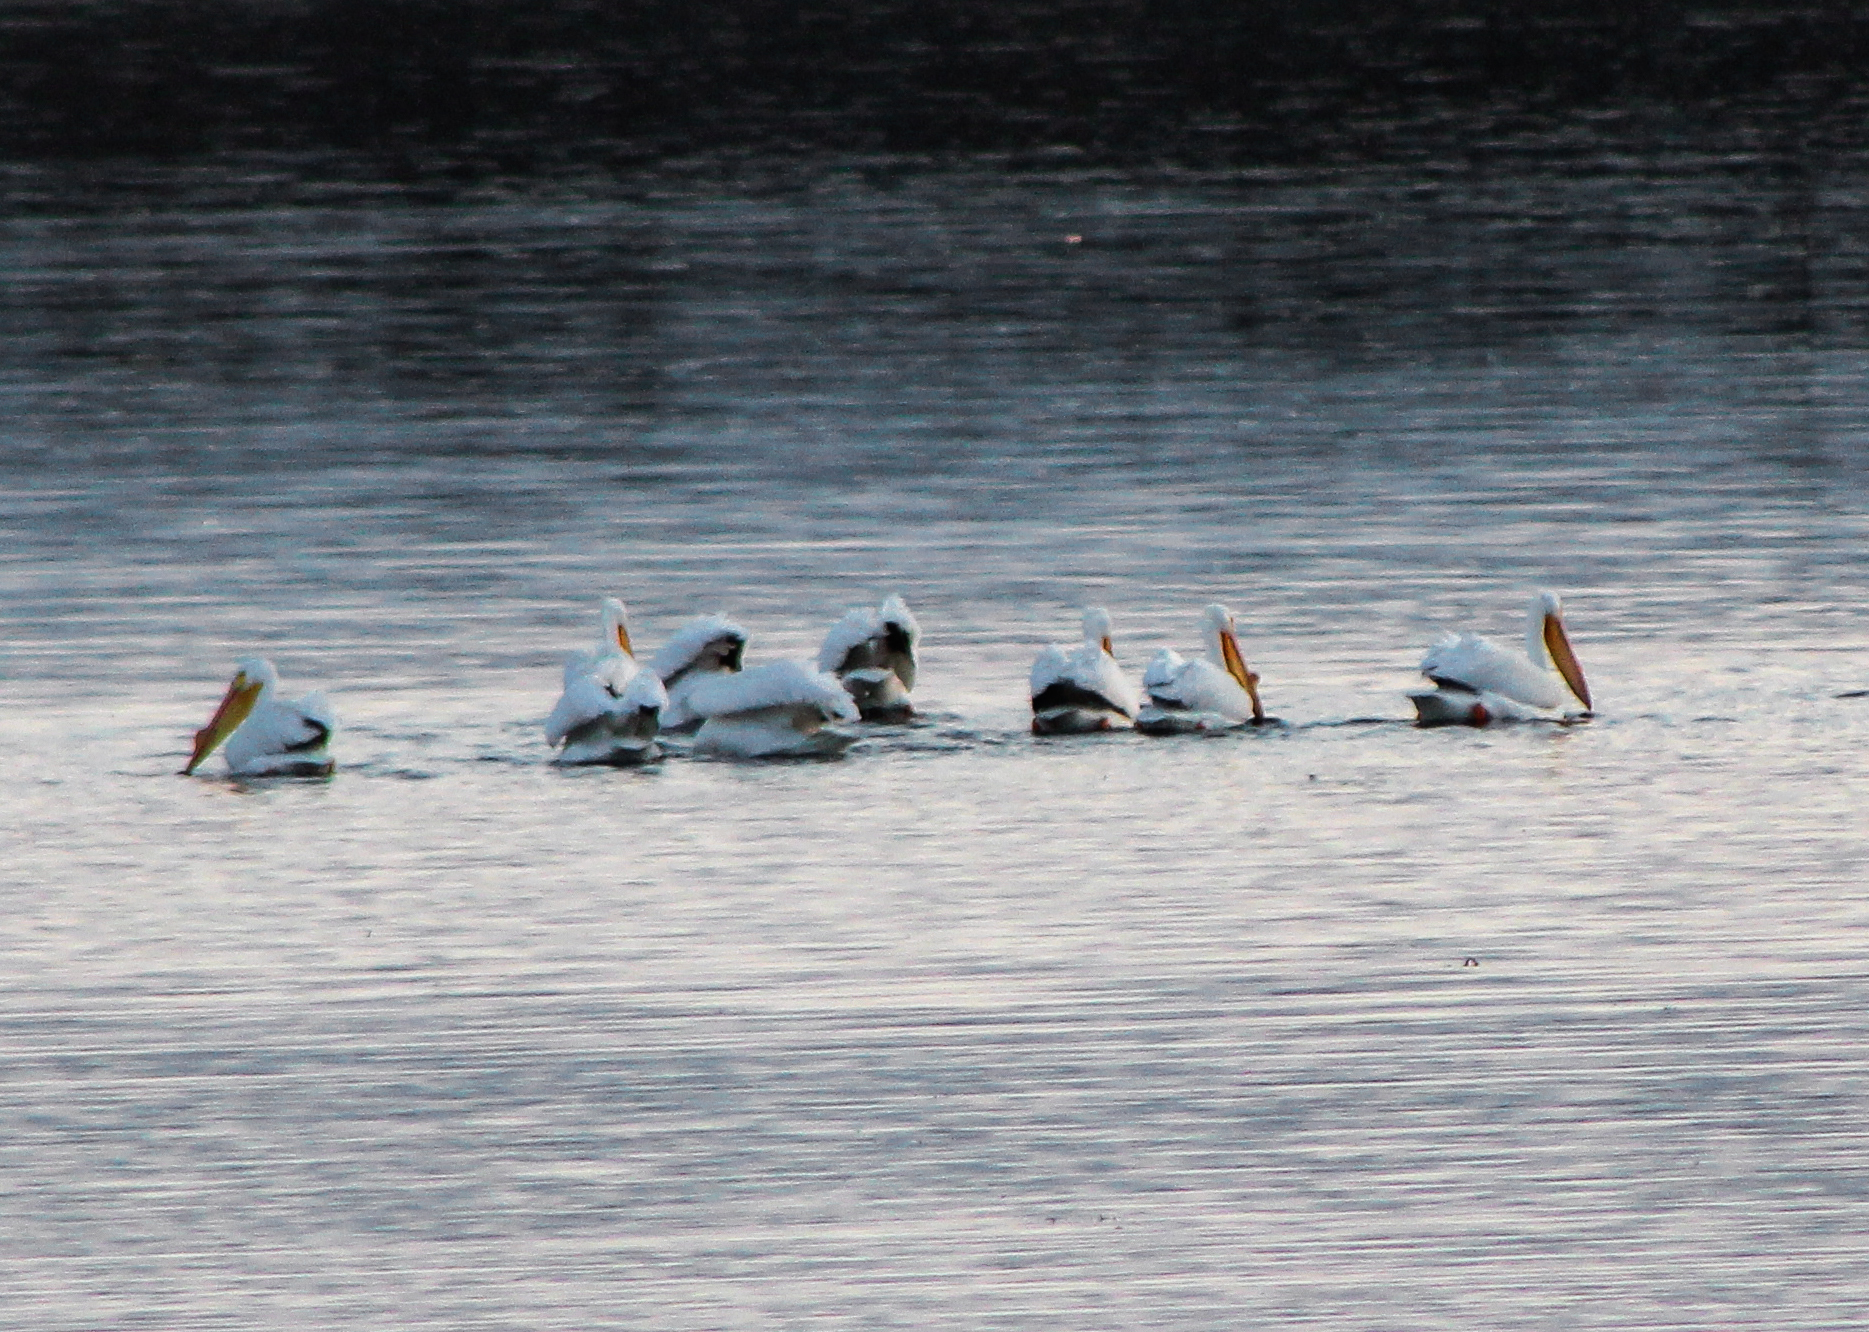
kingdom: Animalia
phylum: Chordata
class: Aves
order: Pelecaniformes
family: Pelecanidae
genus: Pelecanus
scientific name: Pelecanus erythrorhynchos
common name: American white pelican
